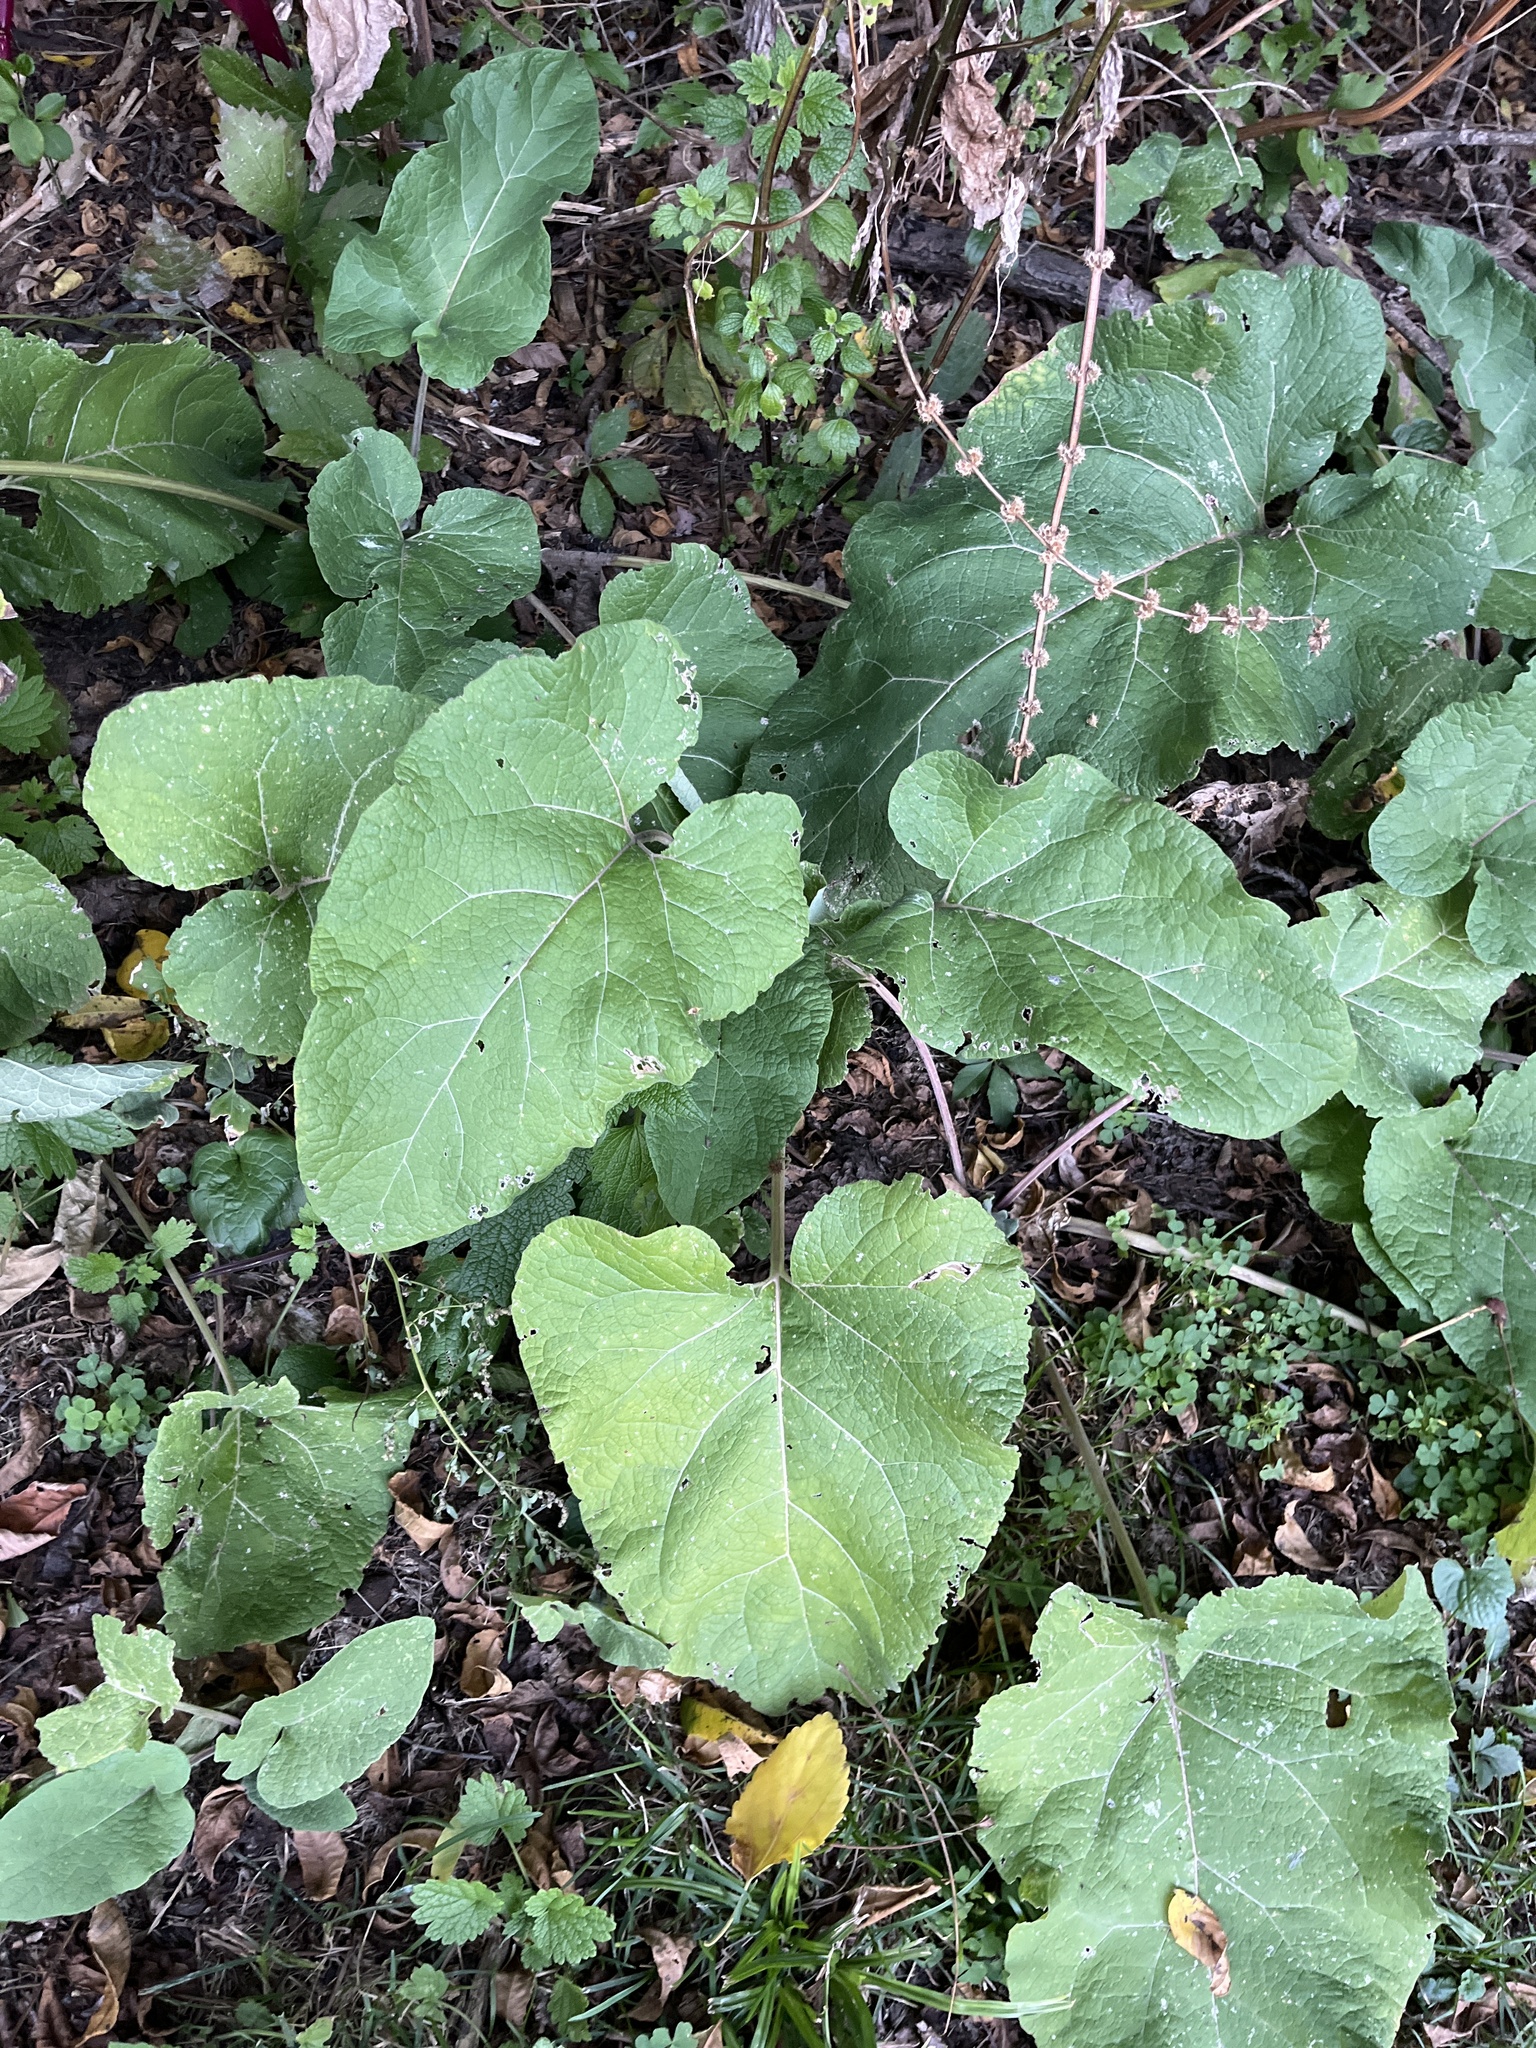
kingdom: Plantae
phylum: Tracheophyta
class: Magnoliopsida
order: Asterales
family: Asteraceae
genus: Arctium
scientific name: Arctium
